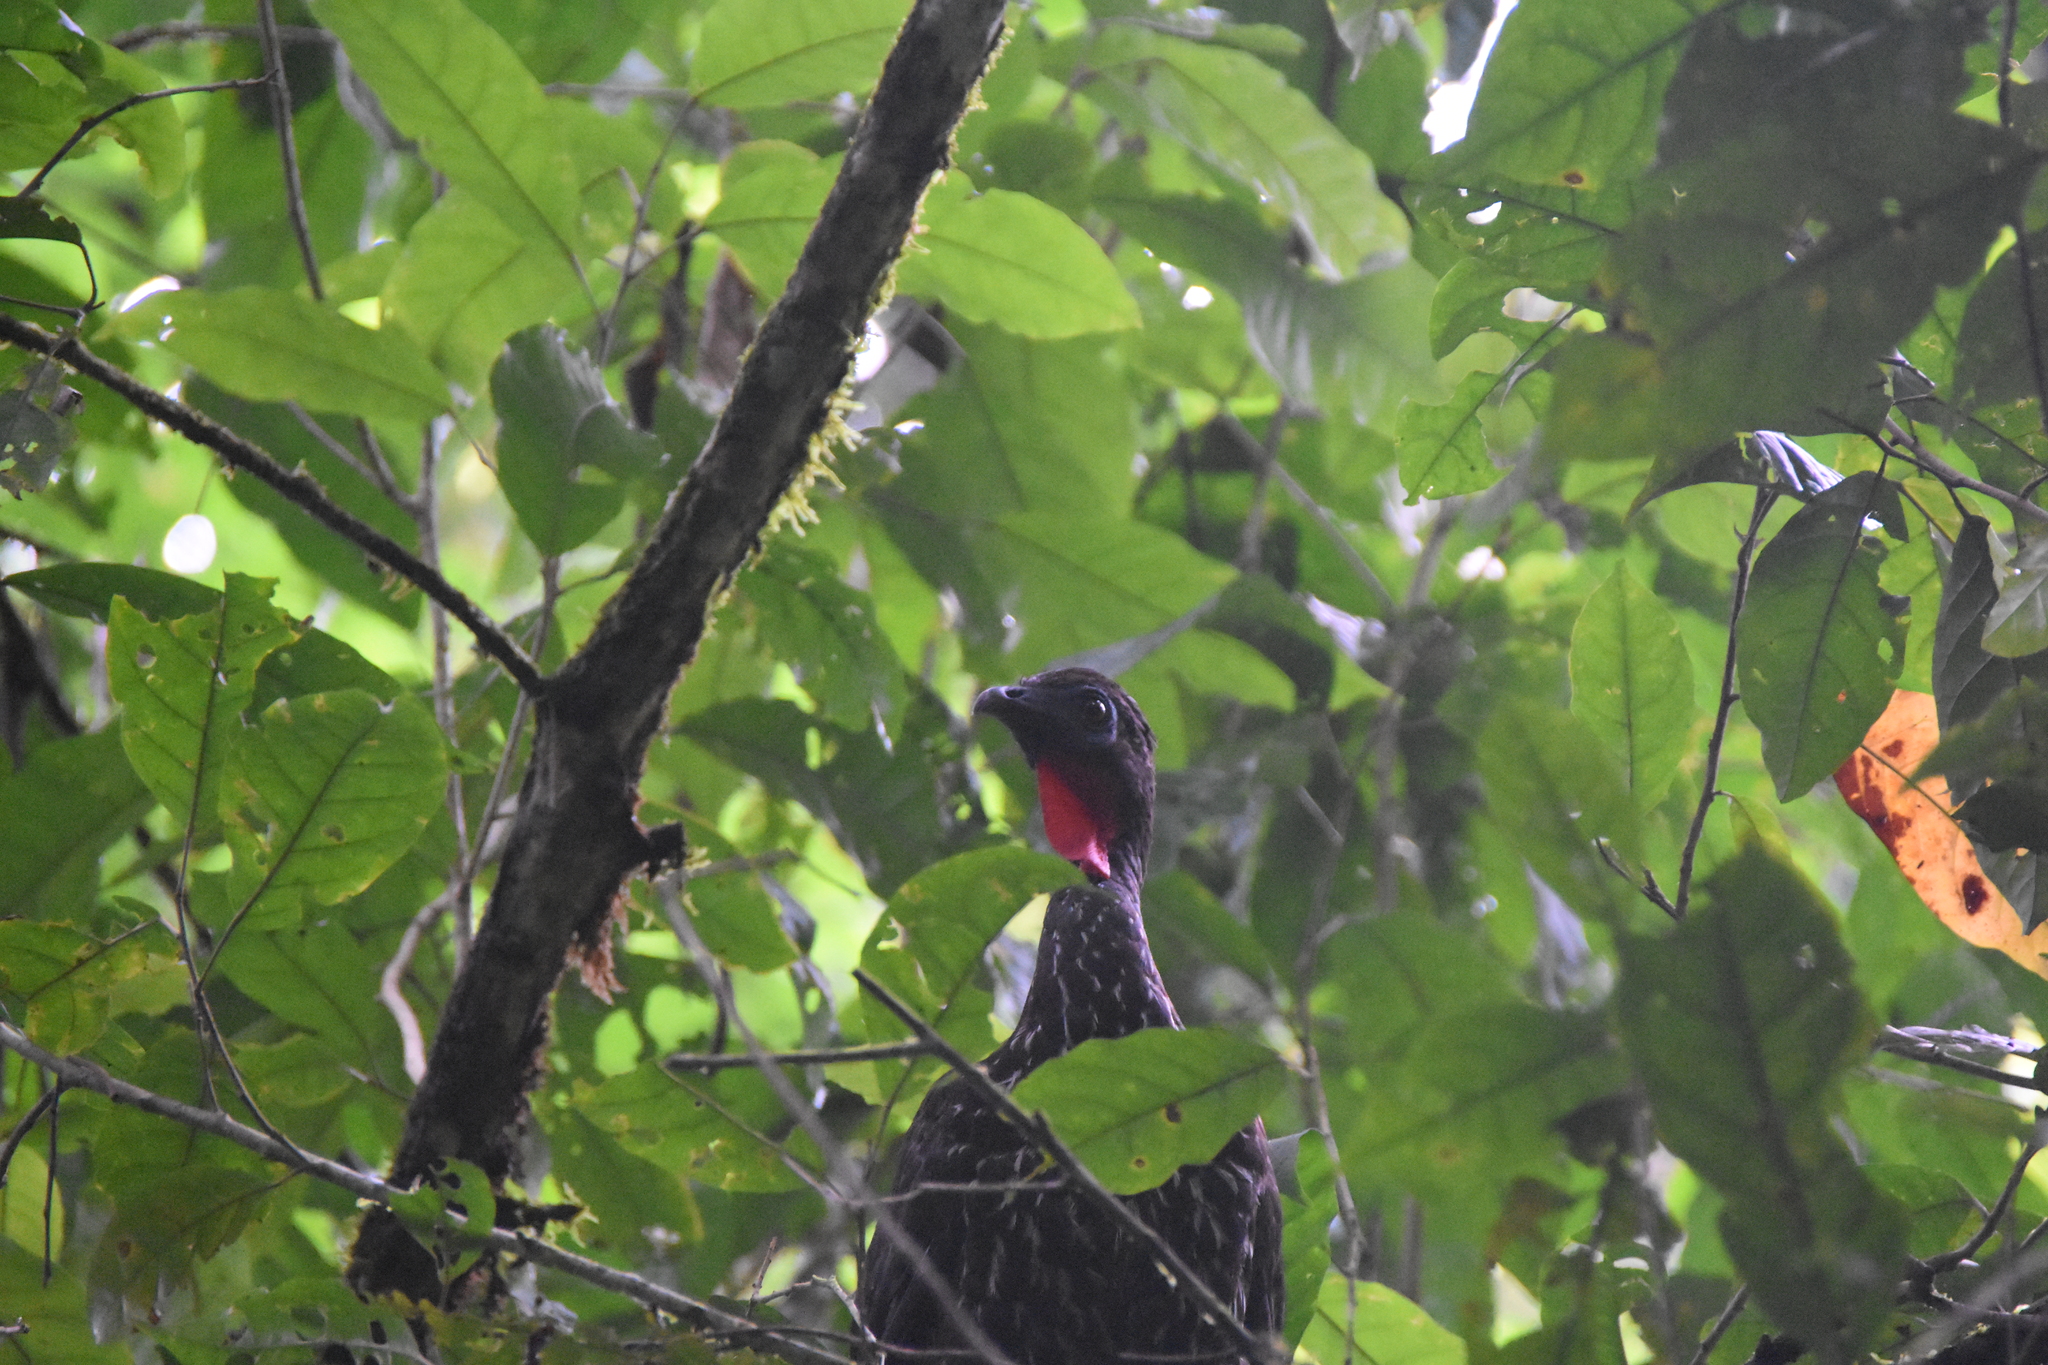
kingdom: Animalia
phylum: Chordata
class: Aves
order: Galliformes
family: Cracidae
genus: Penelope
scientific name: Penelope purpurascens
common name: Crested guan
